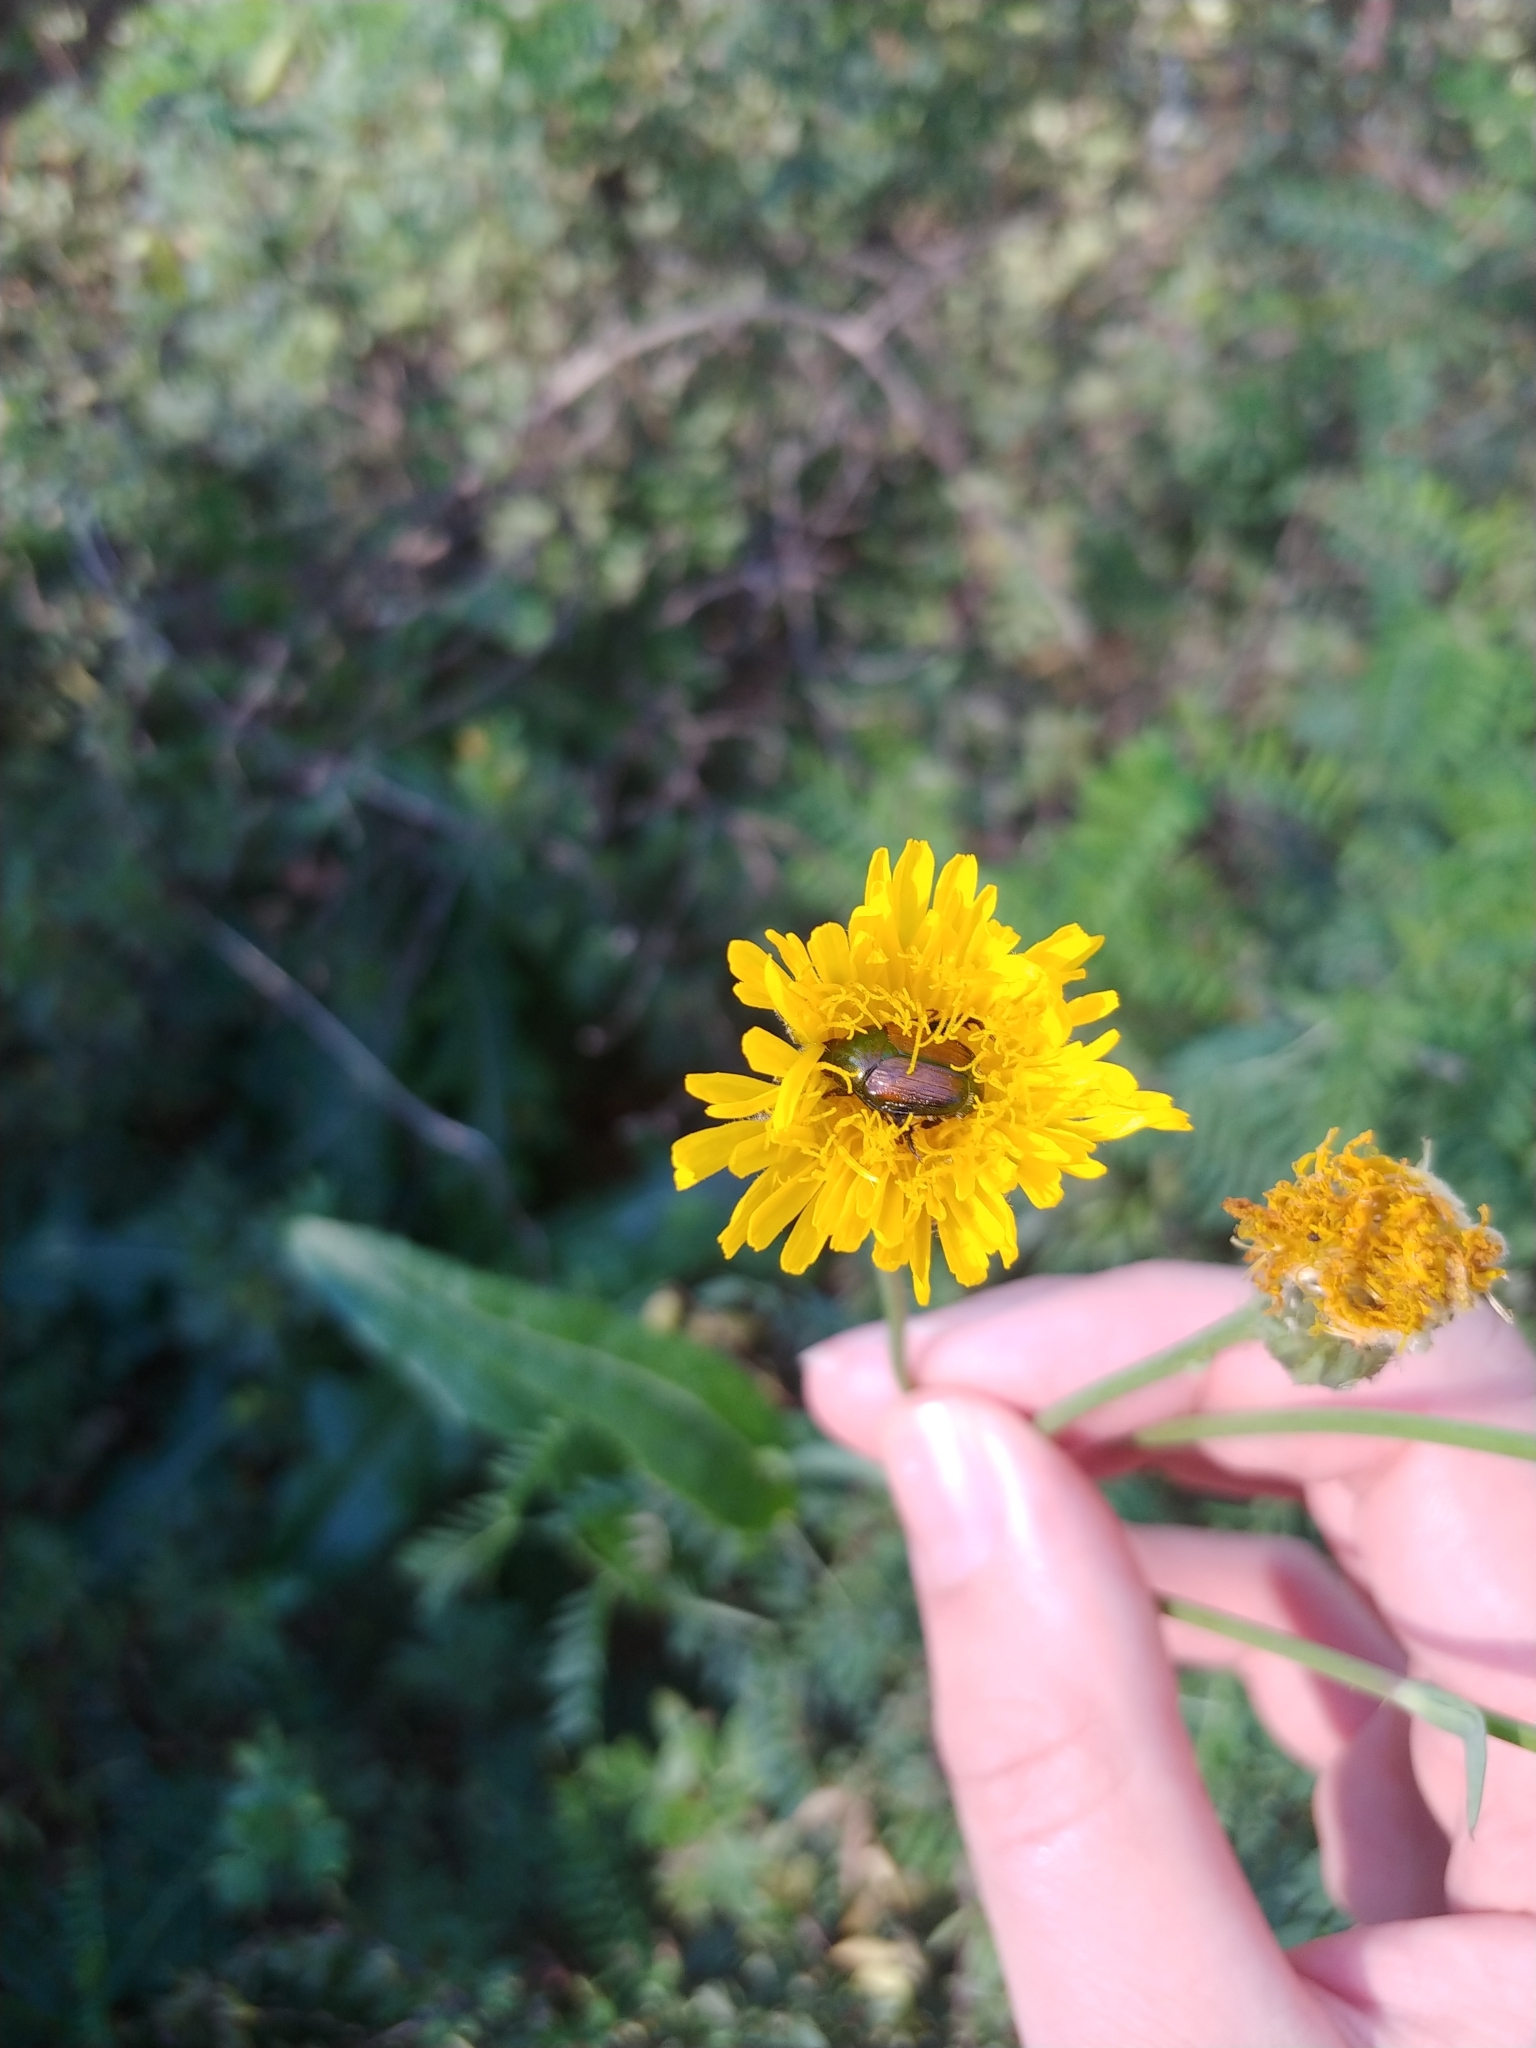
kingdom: Plantae
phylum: Tracheophyta
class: Magnoliopsida
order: Asterales
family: Asteraceae
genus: Sonchus
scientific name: Sonchus arvensis
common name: Perennial sow-thistle
